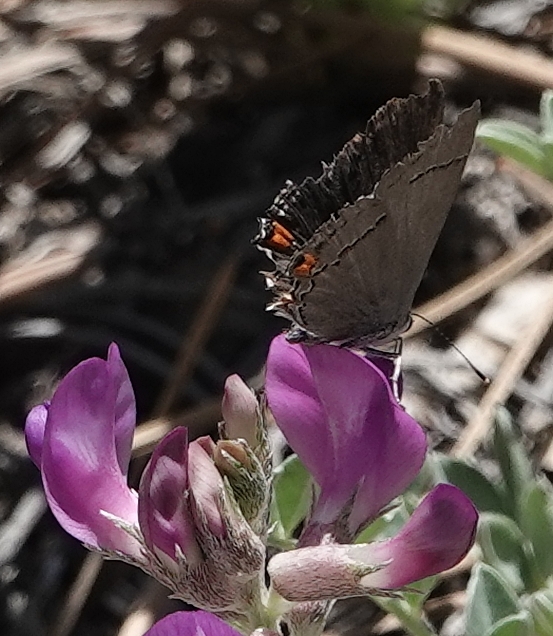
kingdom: Animalia
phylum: Arthropoda
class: Insecta
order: Lepidoptera
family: Lycaenidae
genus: Strymon
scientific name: Strymon melinus
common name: Gray hairstreak
